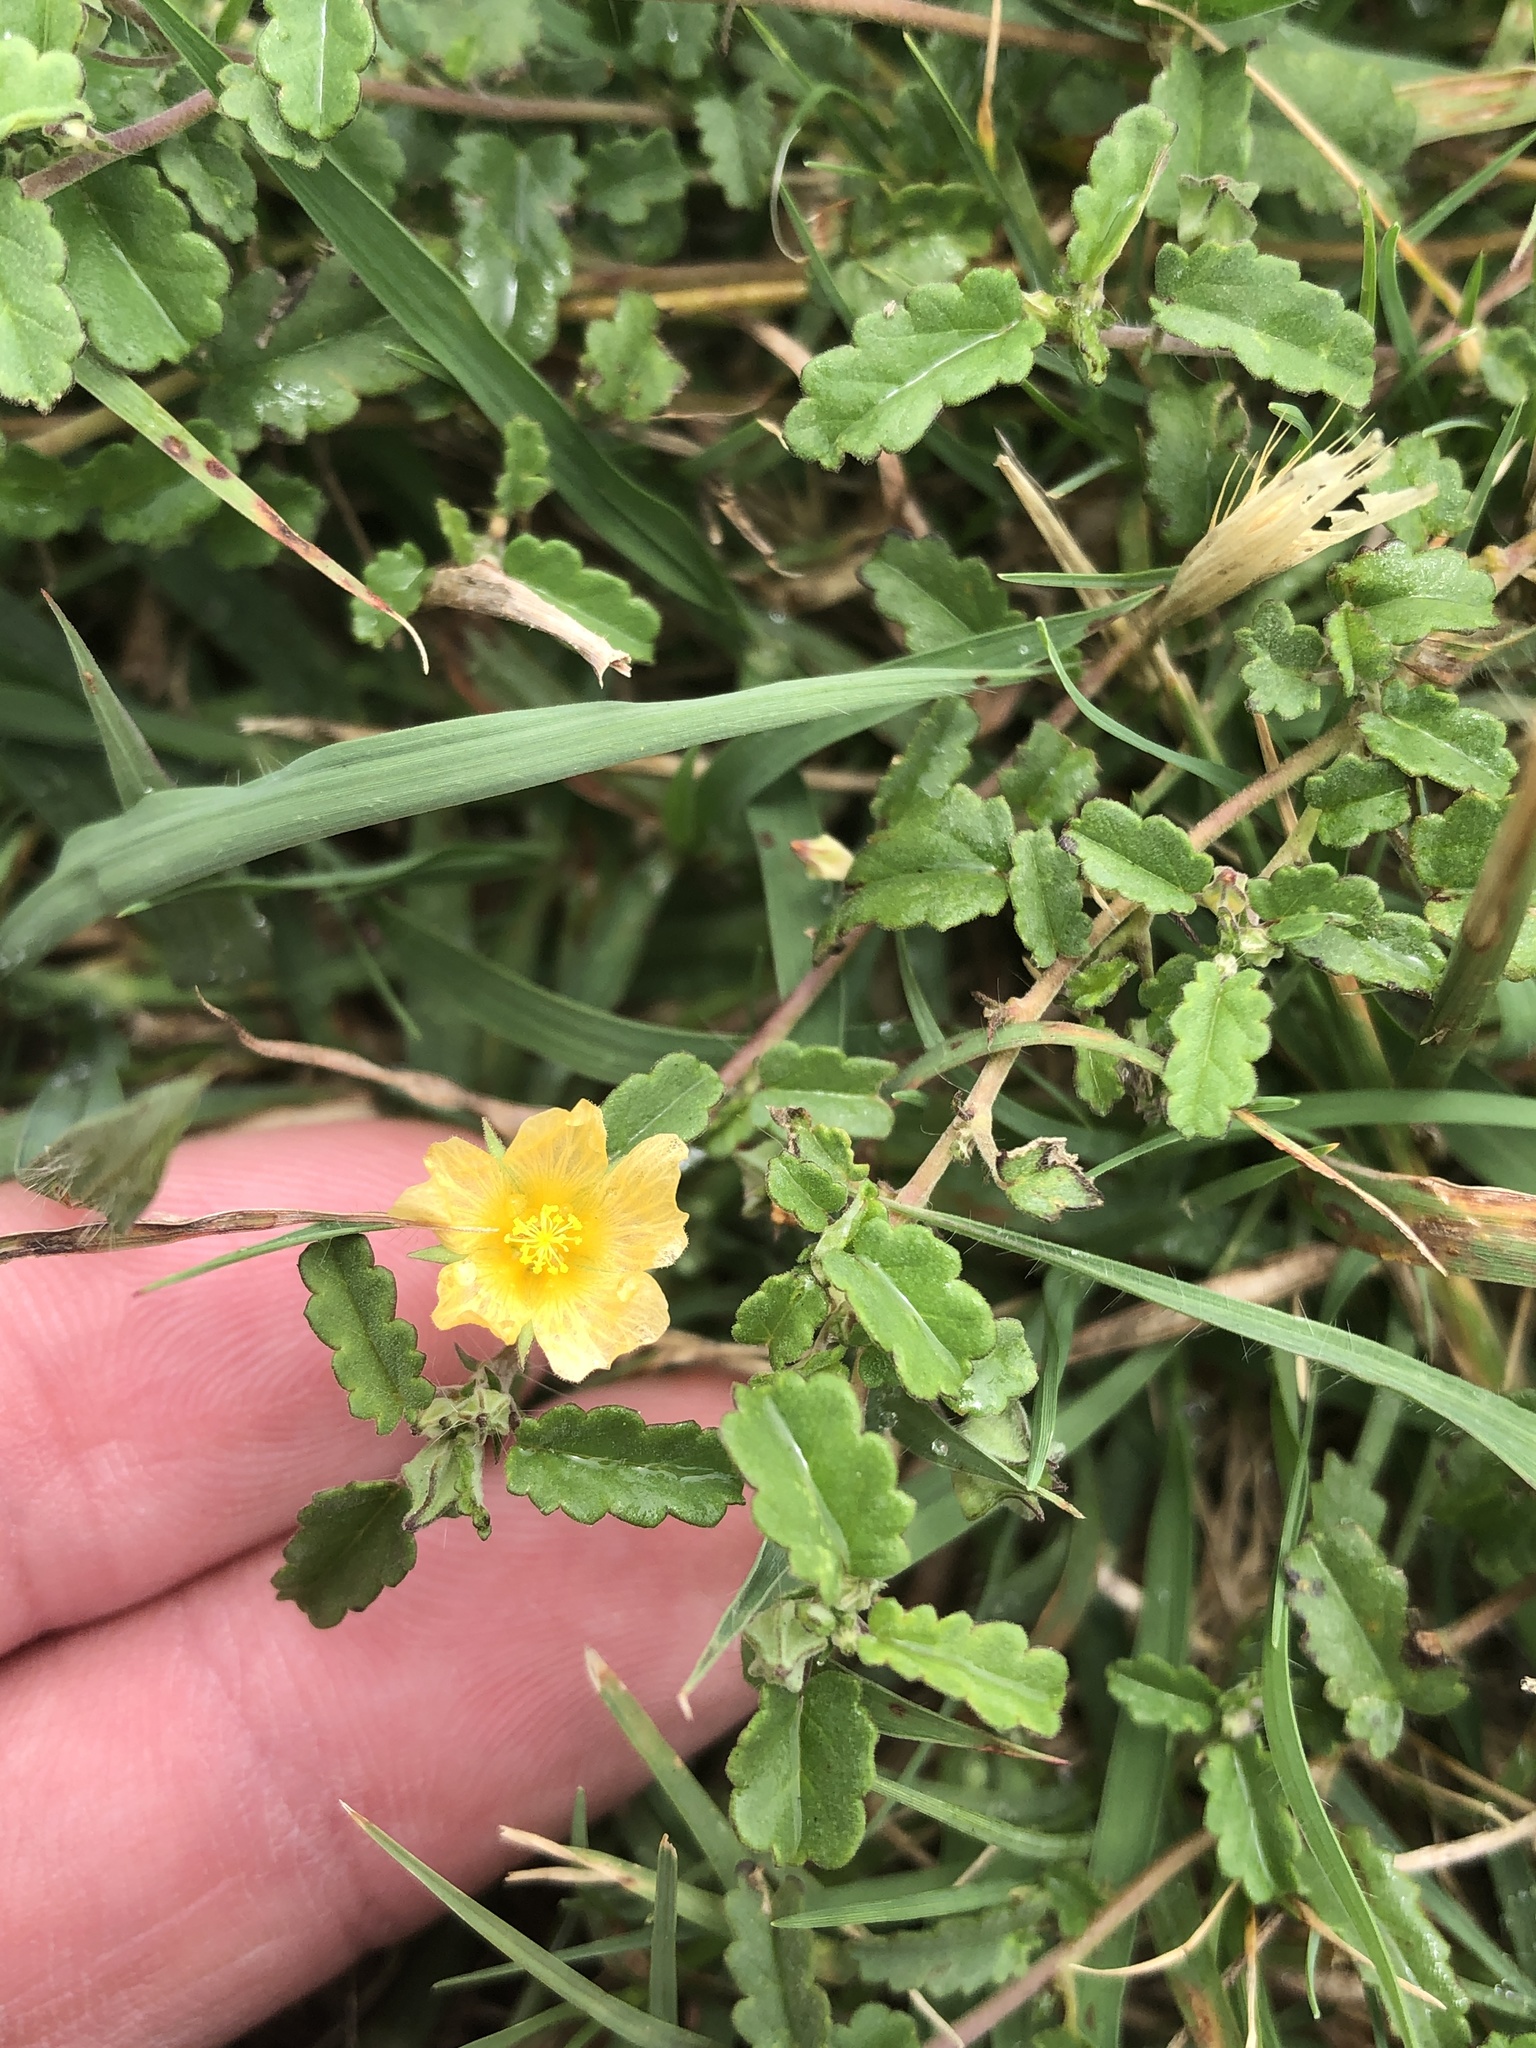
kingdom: Plantae
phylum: Tracheophyta
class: Magnoliopsida
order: Malvales
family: Malvaceae
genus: Sida
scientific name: Sida abutilifolia
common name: Spreading fanpetals
